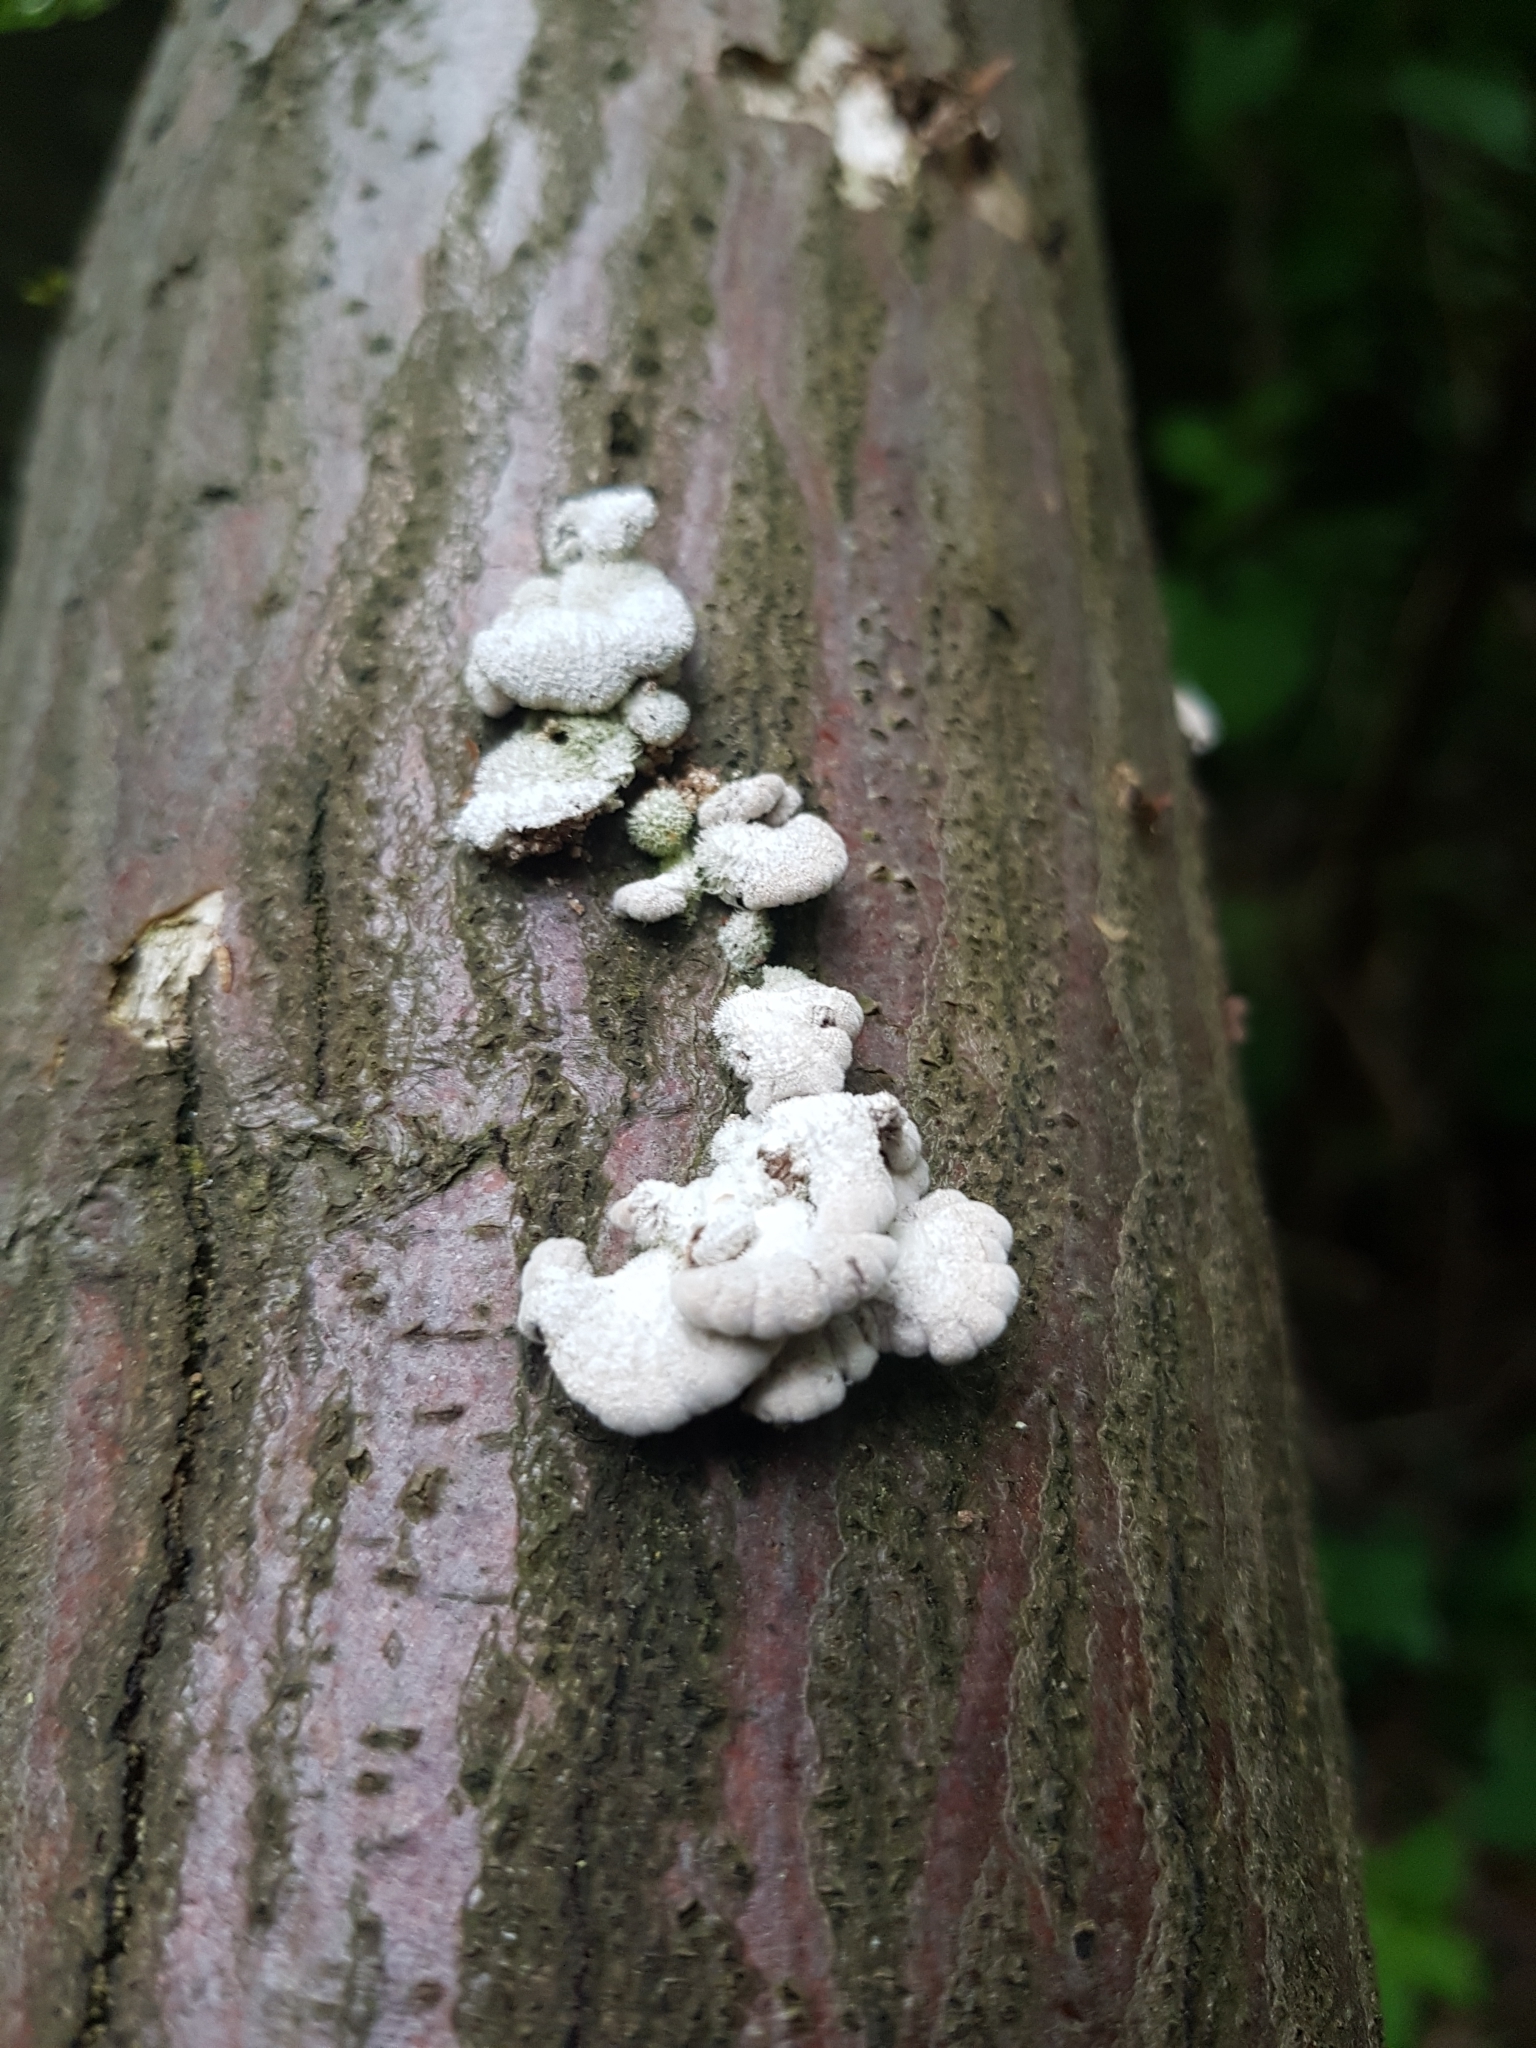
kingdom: Fungi
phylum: Basidiomycota
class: Agaricomycetes
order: Agaricales
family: Schizophyllaceae
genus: Schizophyllum
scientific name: Schizophyllum commune
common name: Common porecrust
